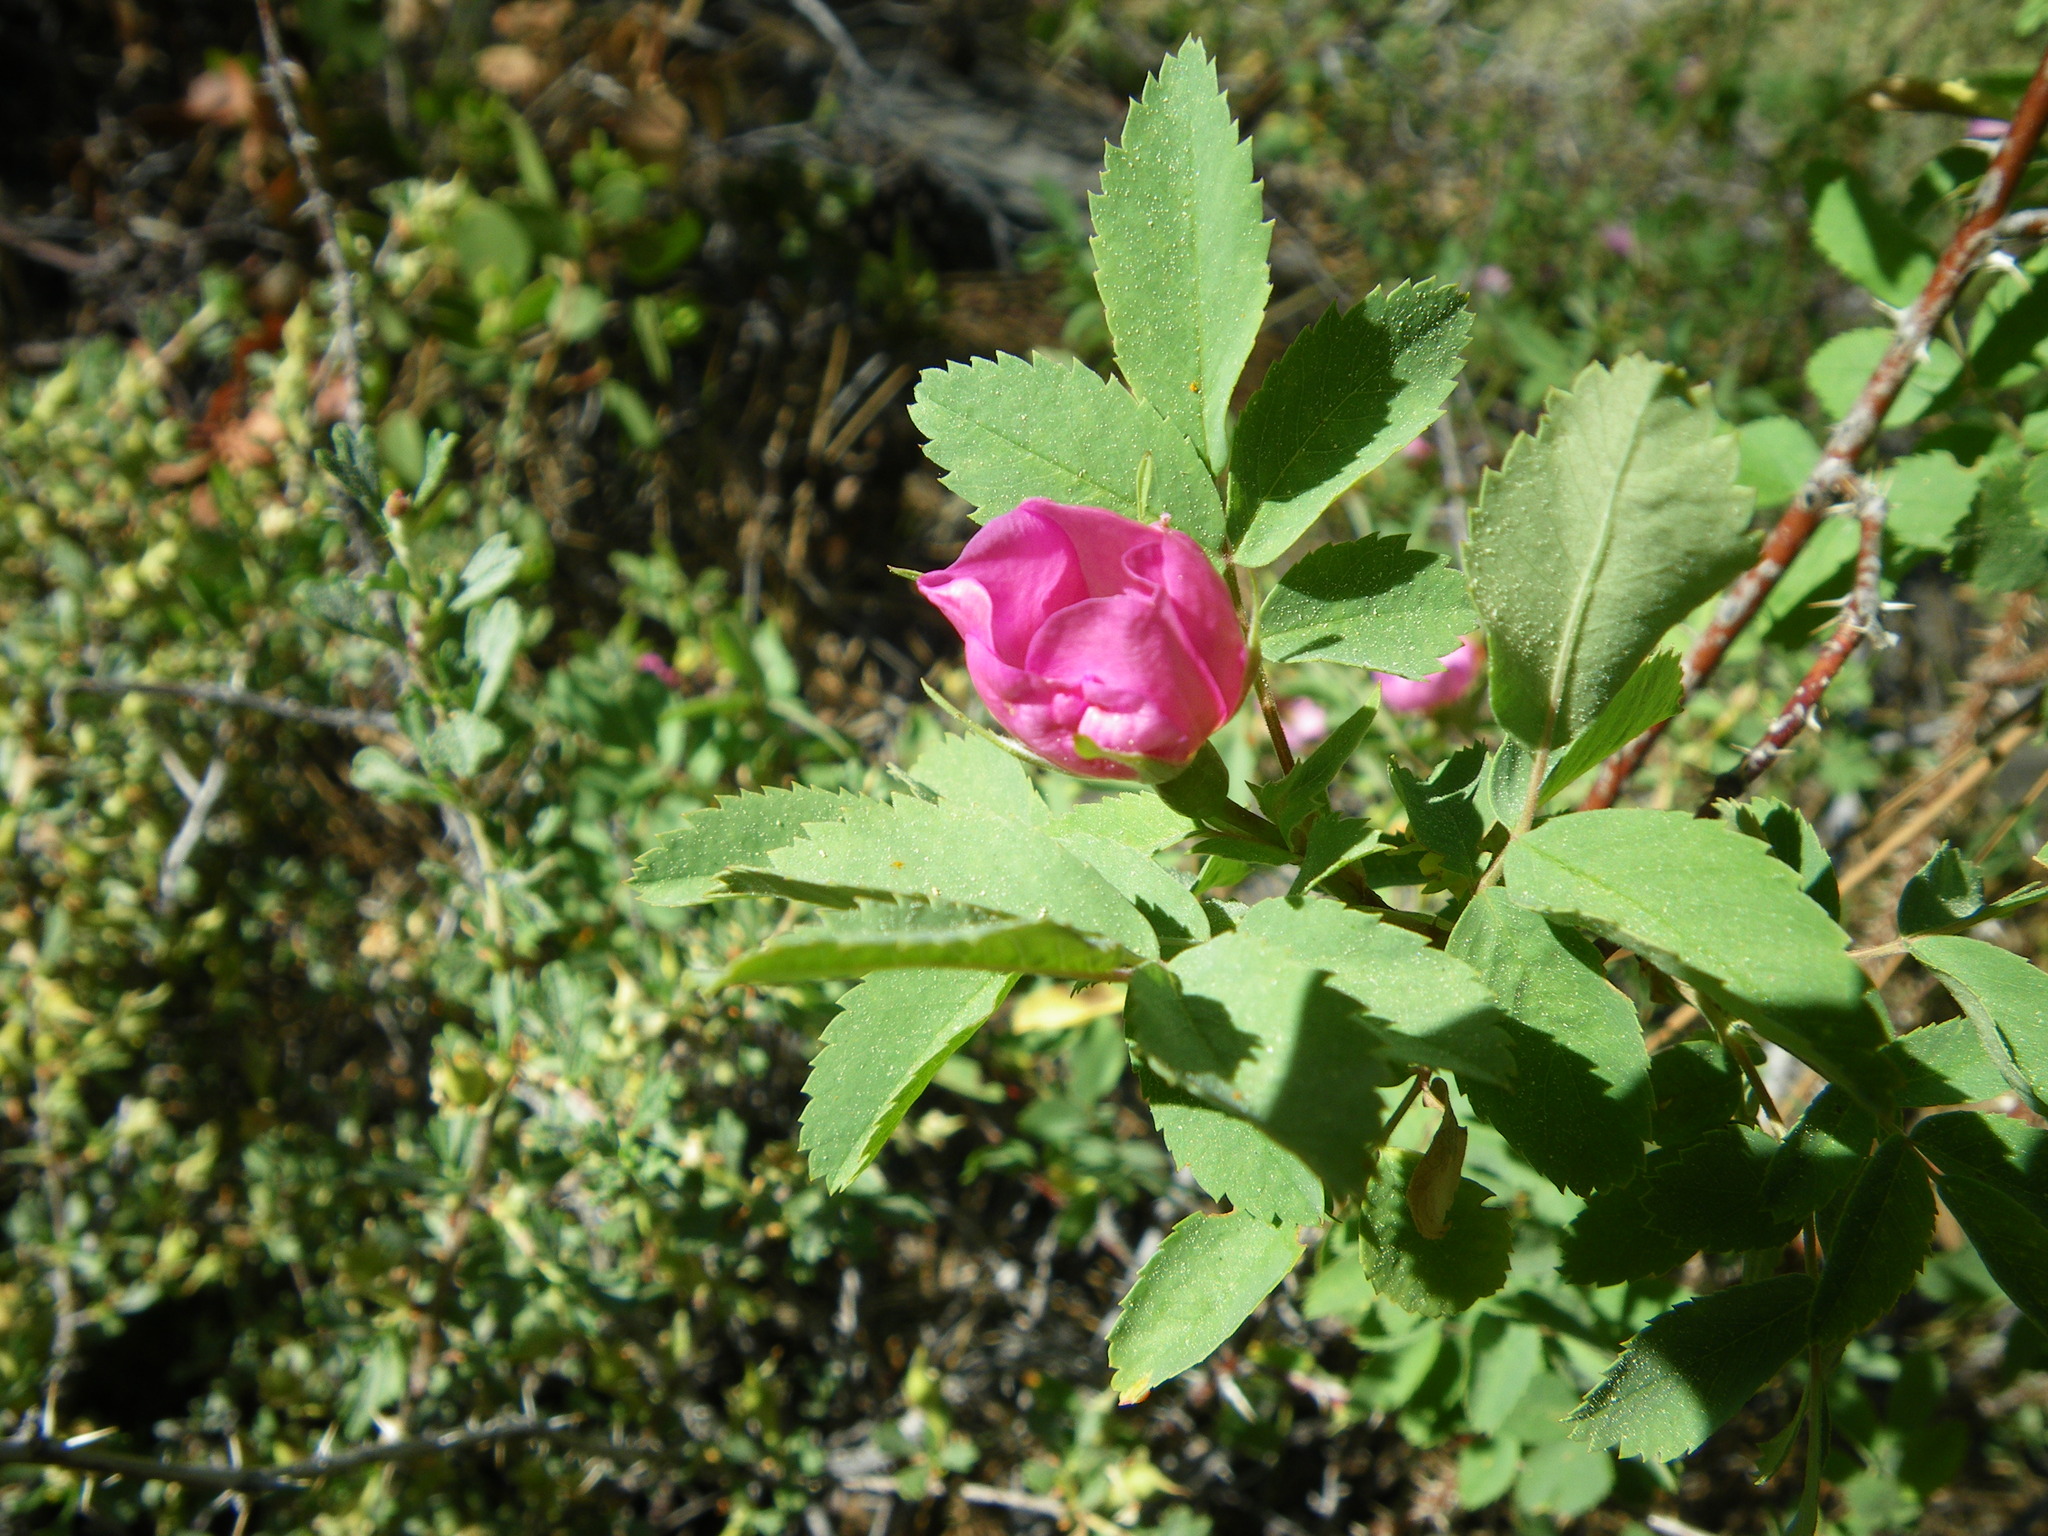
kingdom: Plantae
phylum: Tracheophyta
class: Magnoliopsida
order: Rosales
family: Rosaceae
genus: Rosa
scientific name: Rosa woodsii
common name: Woods's rose
